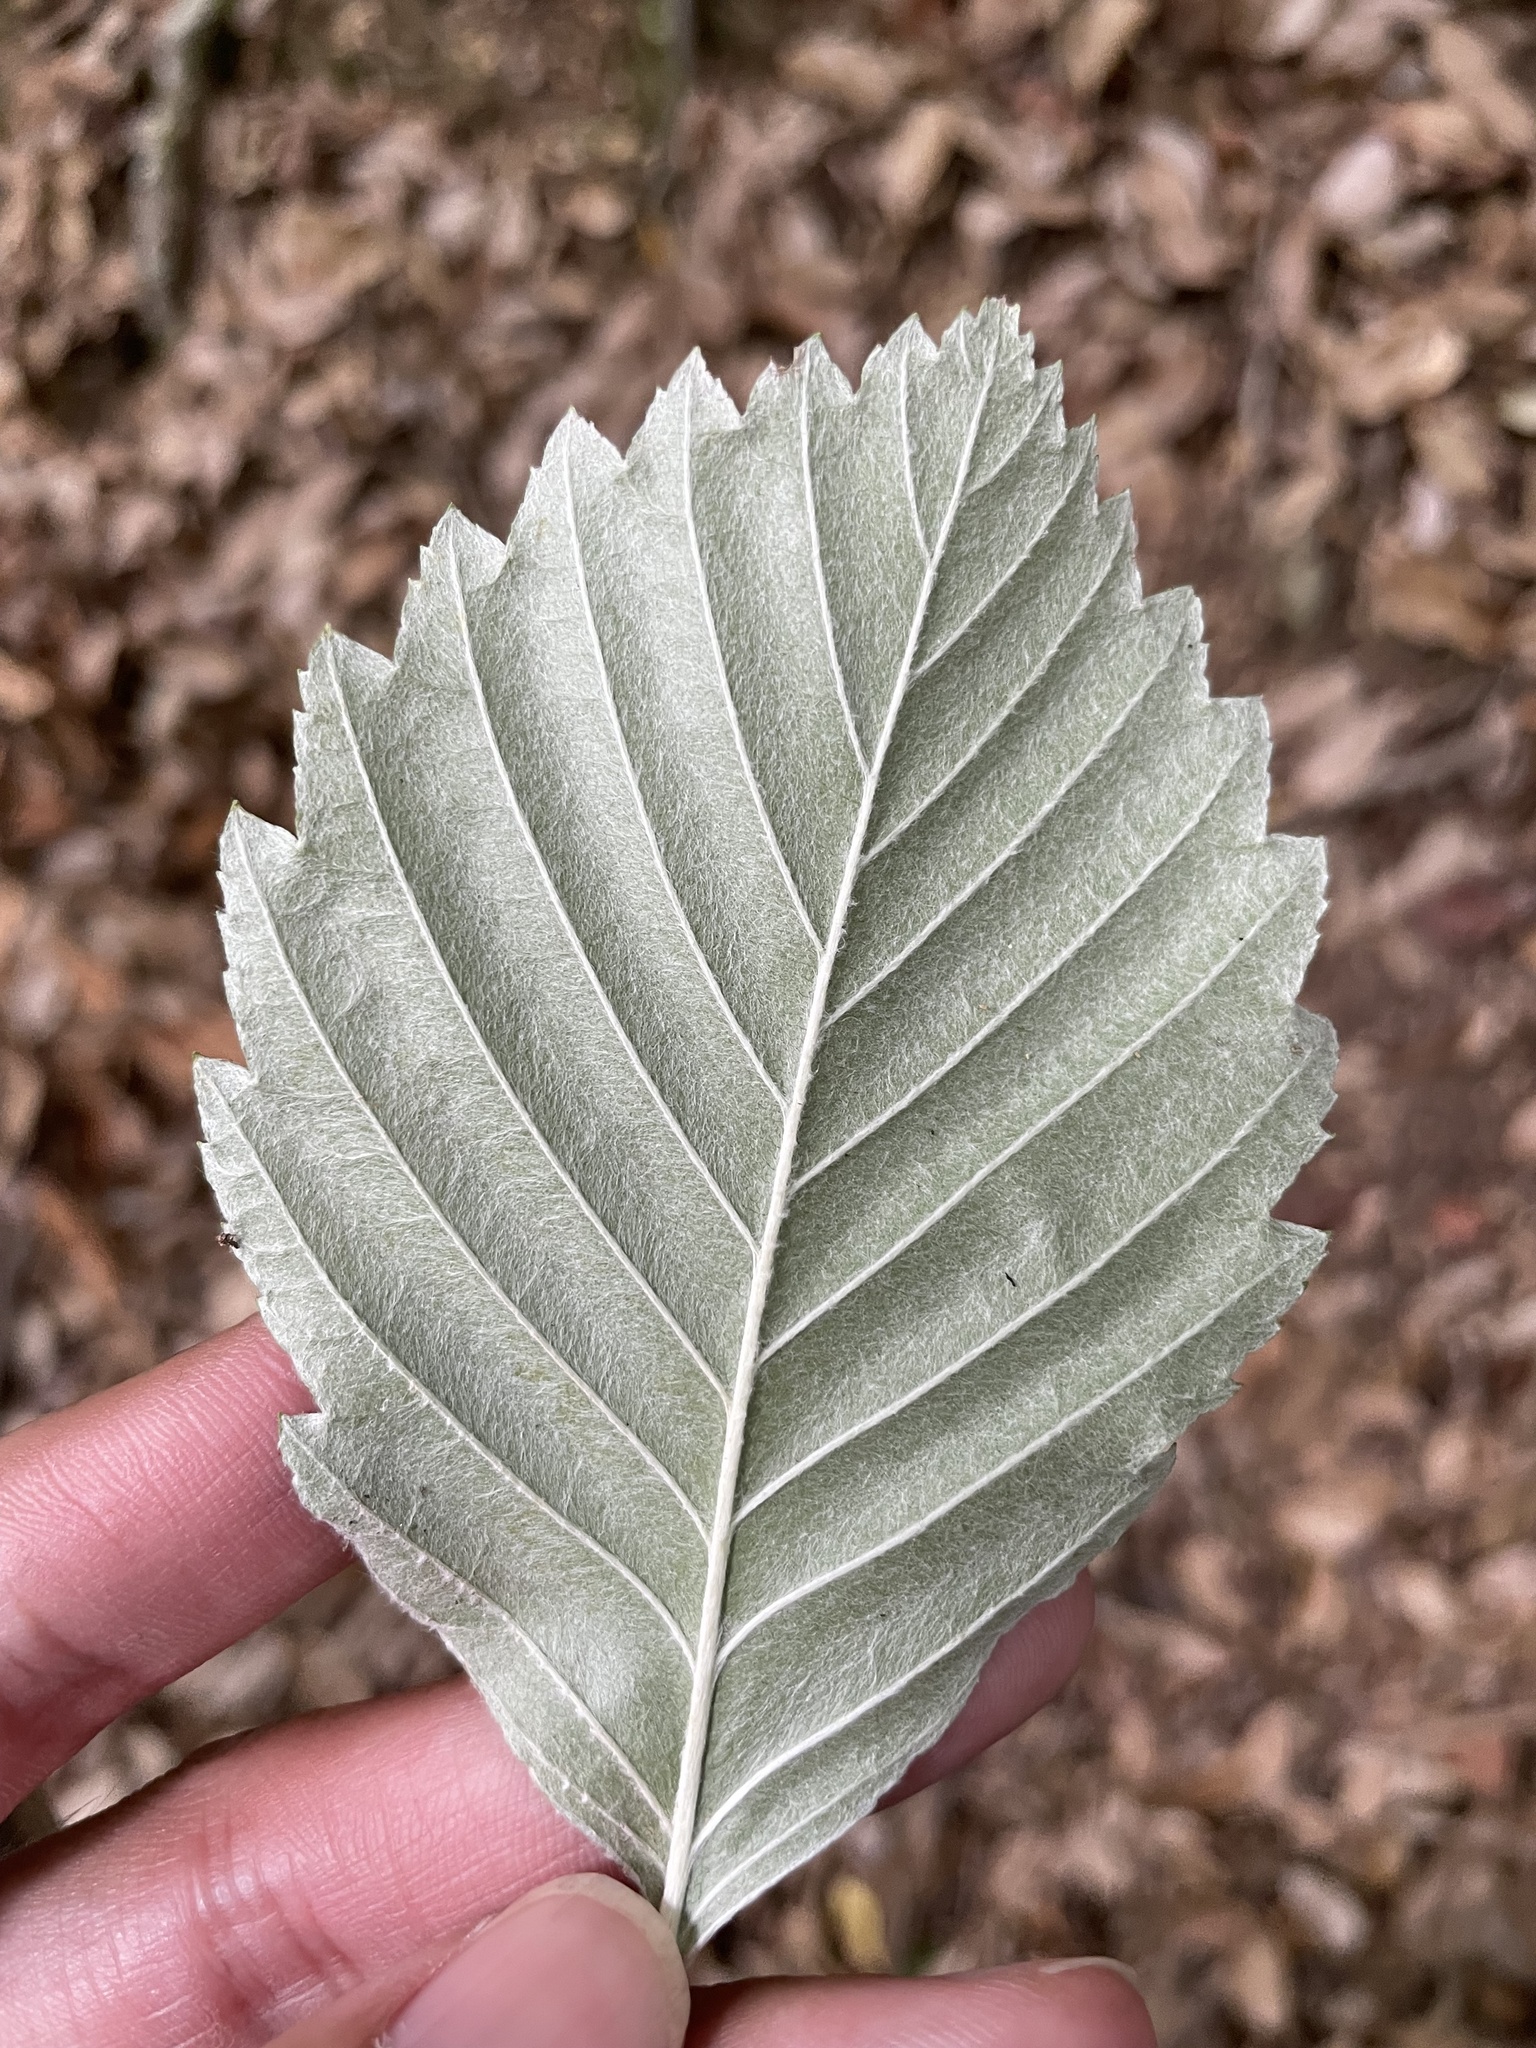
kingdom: Plantae
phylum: Tracheophyta
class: Magnoliopsida
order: Rosales
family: Rosaceae
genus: Sorbus
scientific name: Sorbus japonica
